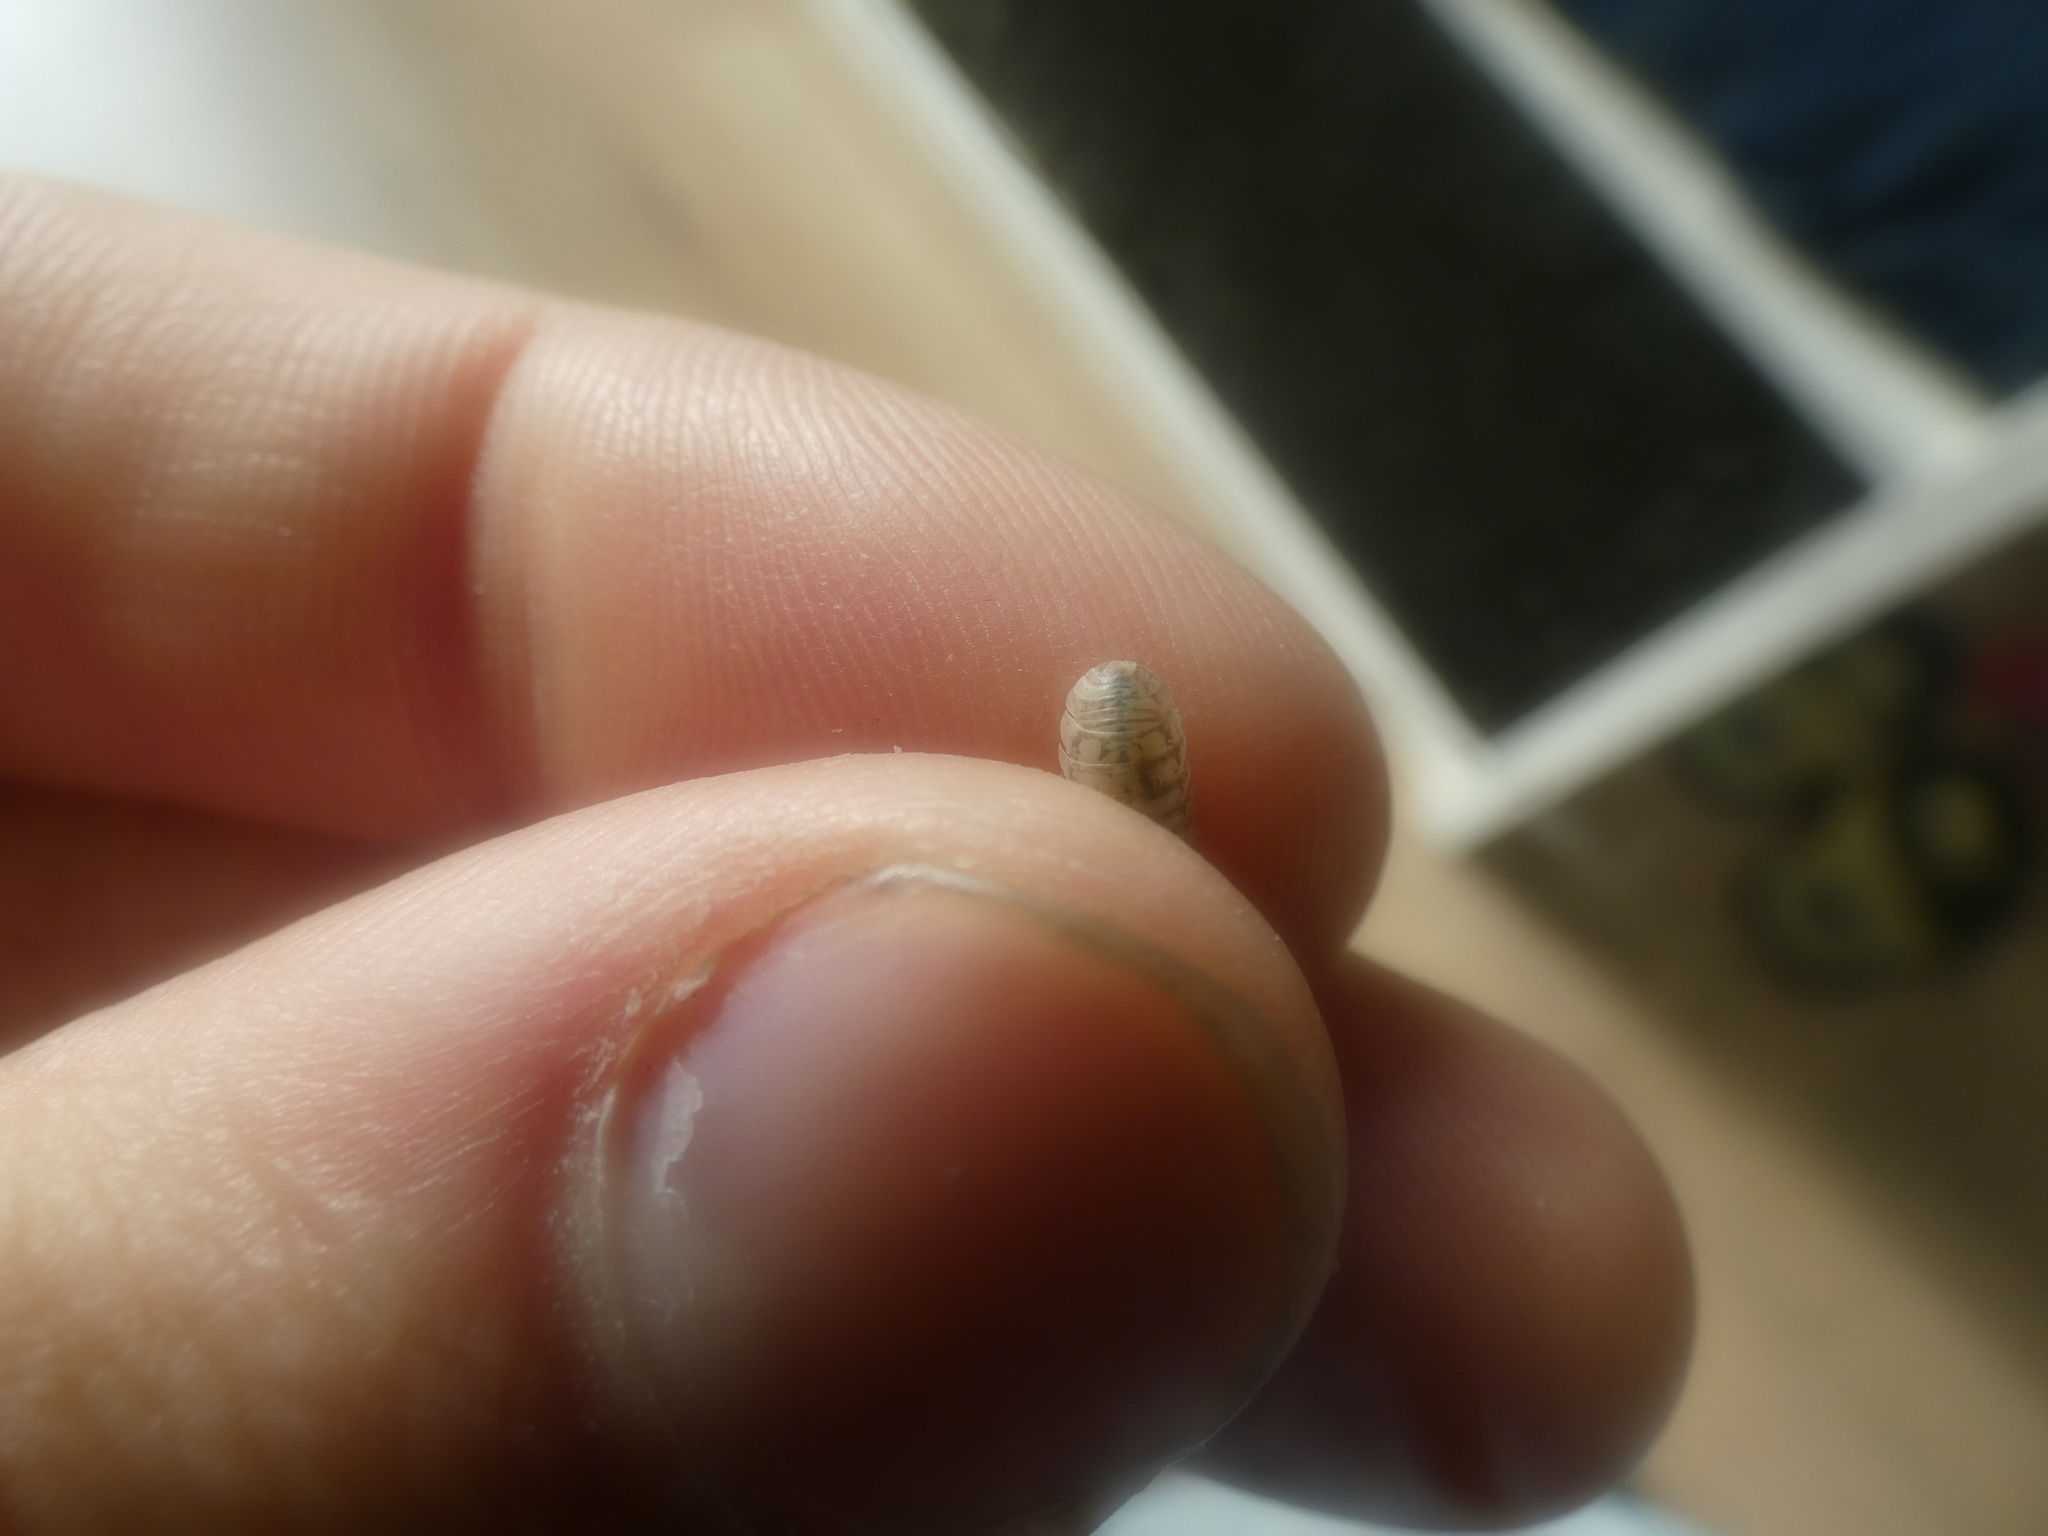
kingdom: Animalia
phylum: Arthropoda
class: Malacostraca
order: Isopoda
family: Armadillidiidae
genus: Armadillidium
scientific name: Armadillidium vulgare
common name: Common pill woodlouse
